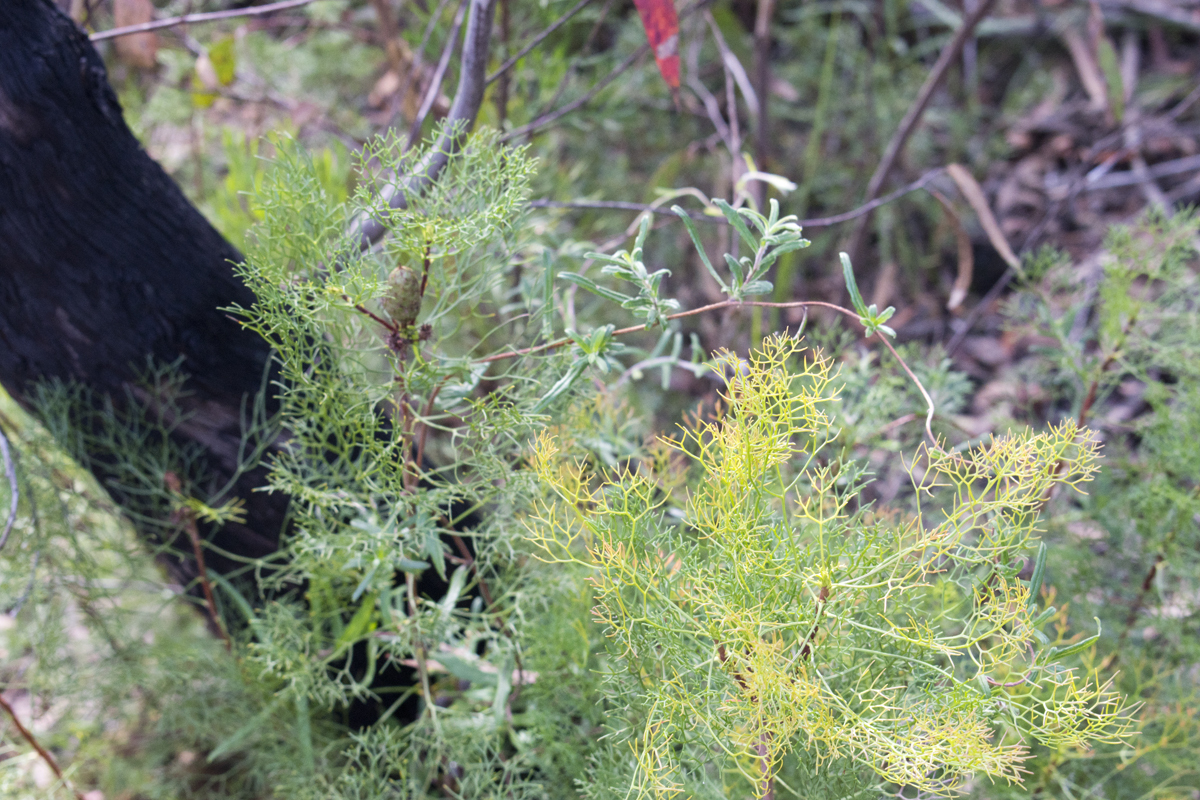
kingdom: Plantae
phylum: Tracheophyta
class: Magnoliopsida
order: Proteales
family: Proteaceae
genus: Petrophile
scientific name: Petrophile pedunculata
